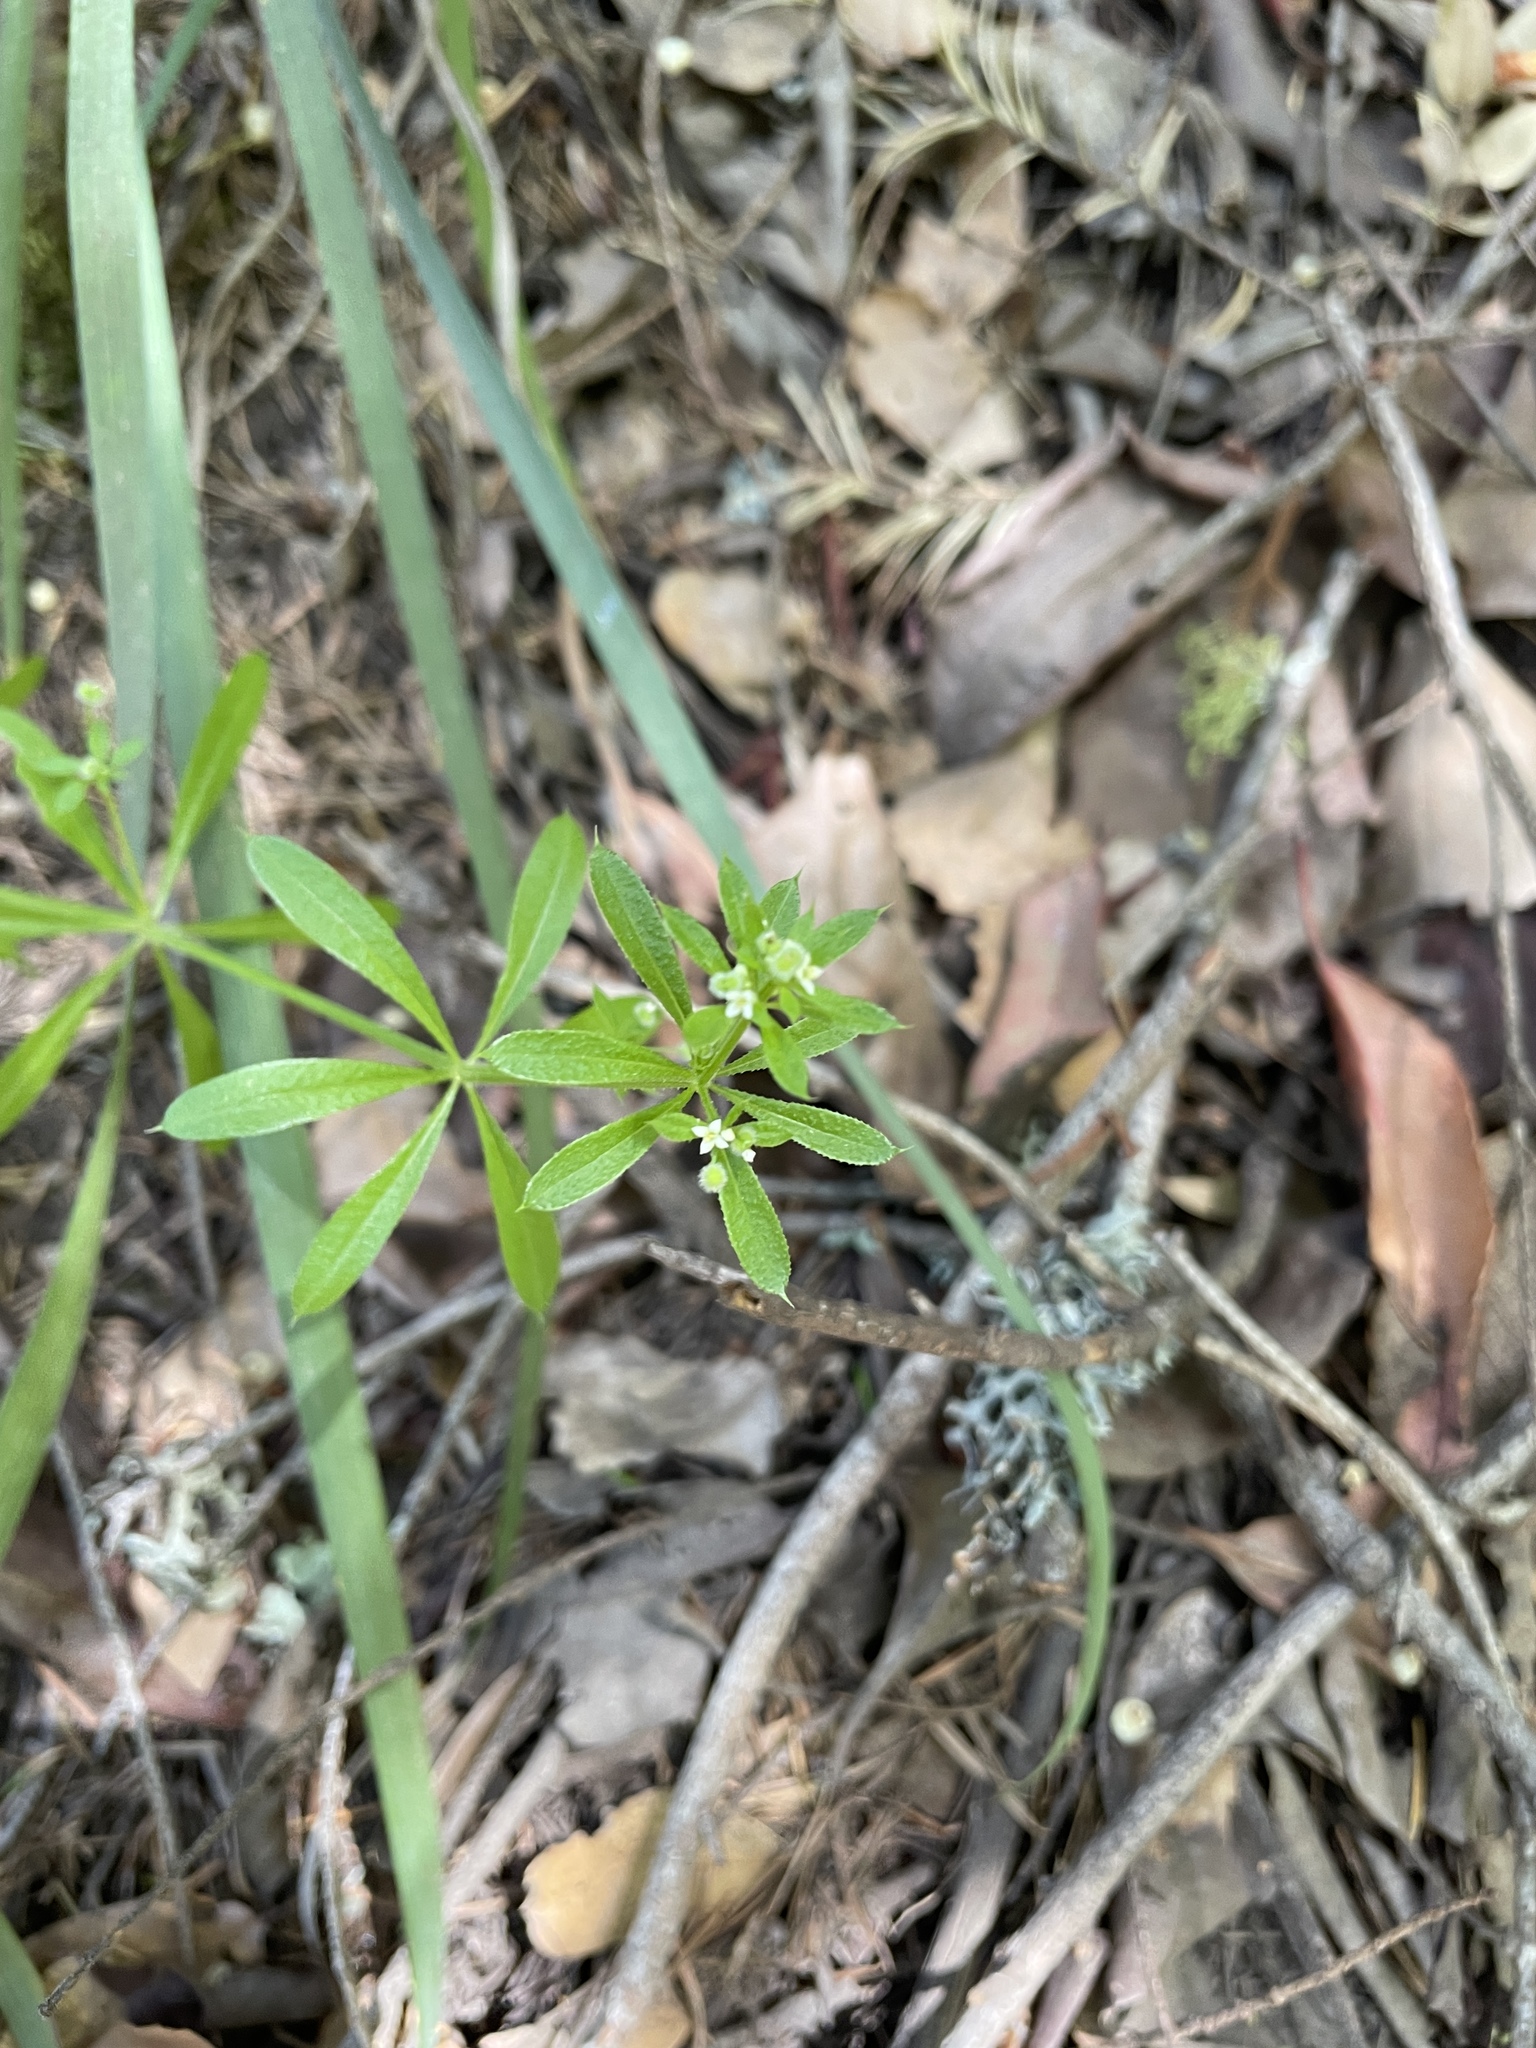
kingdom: Plantae
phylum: Tracheophyta
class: Magnoliopsida
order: Gentianales
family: Rubiaceae
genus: Galium
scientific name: Galium aparine
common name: Cleavers
